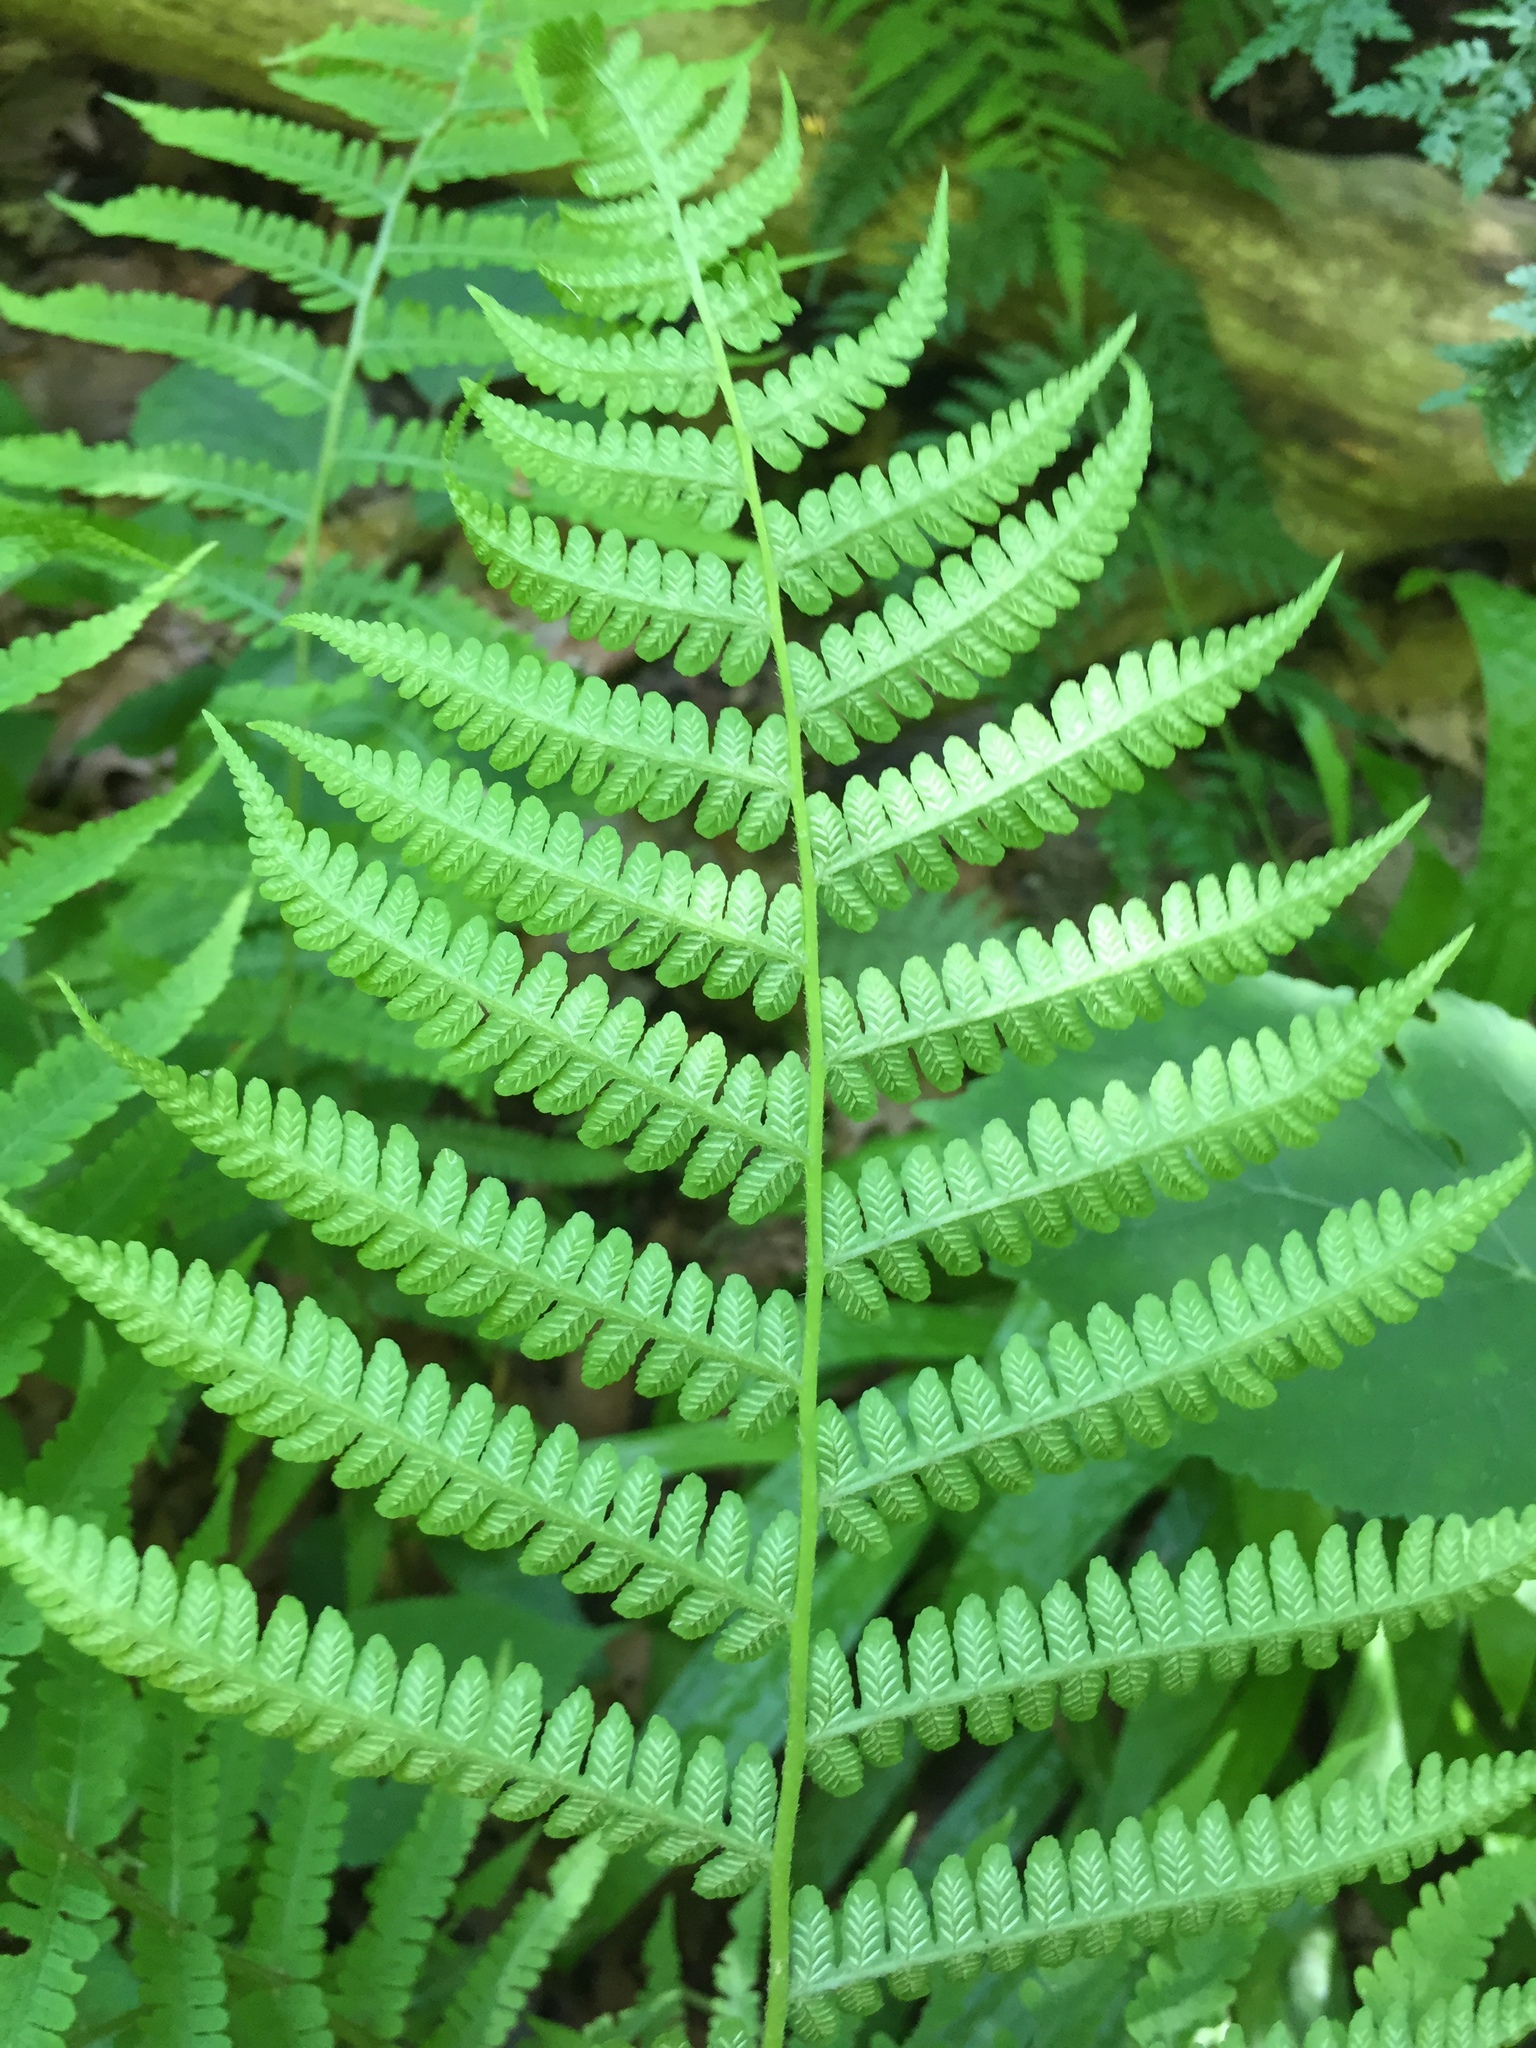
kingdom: Plantae
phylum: Tracheophyta
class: Polypodiopsida
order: Polypodiales
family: Athyriaceae
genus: Deparia
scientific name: Deparia acrostichoides
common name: Silver false spleenwort
